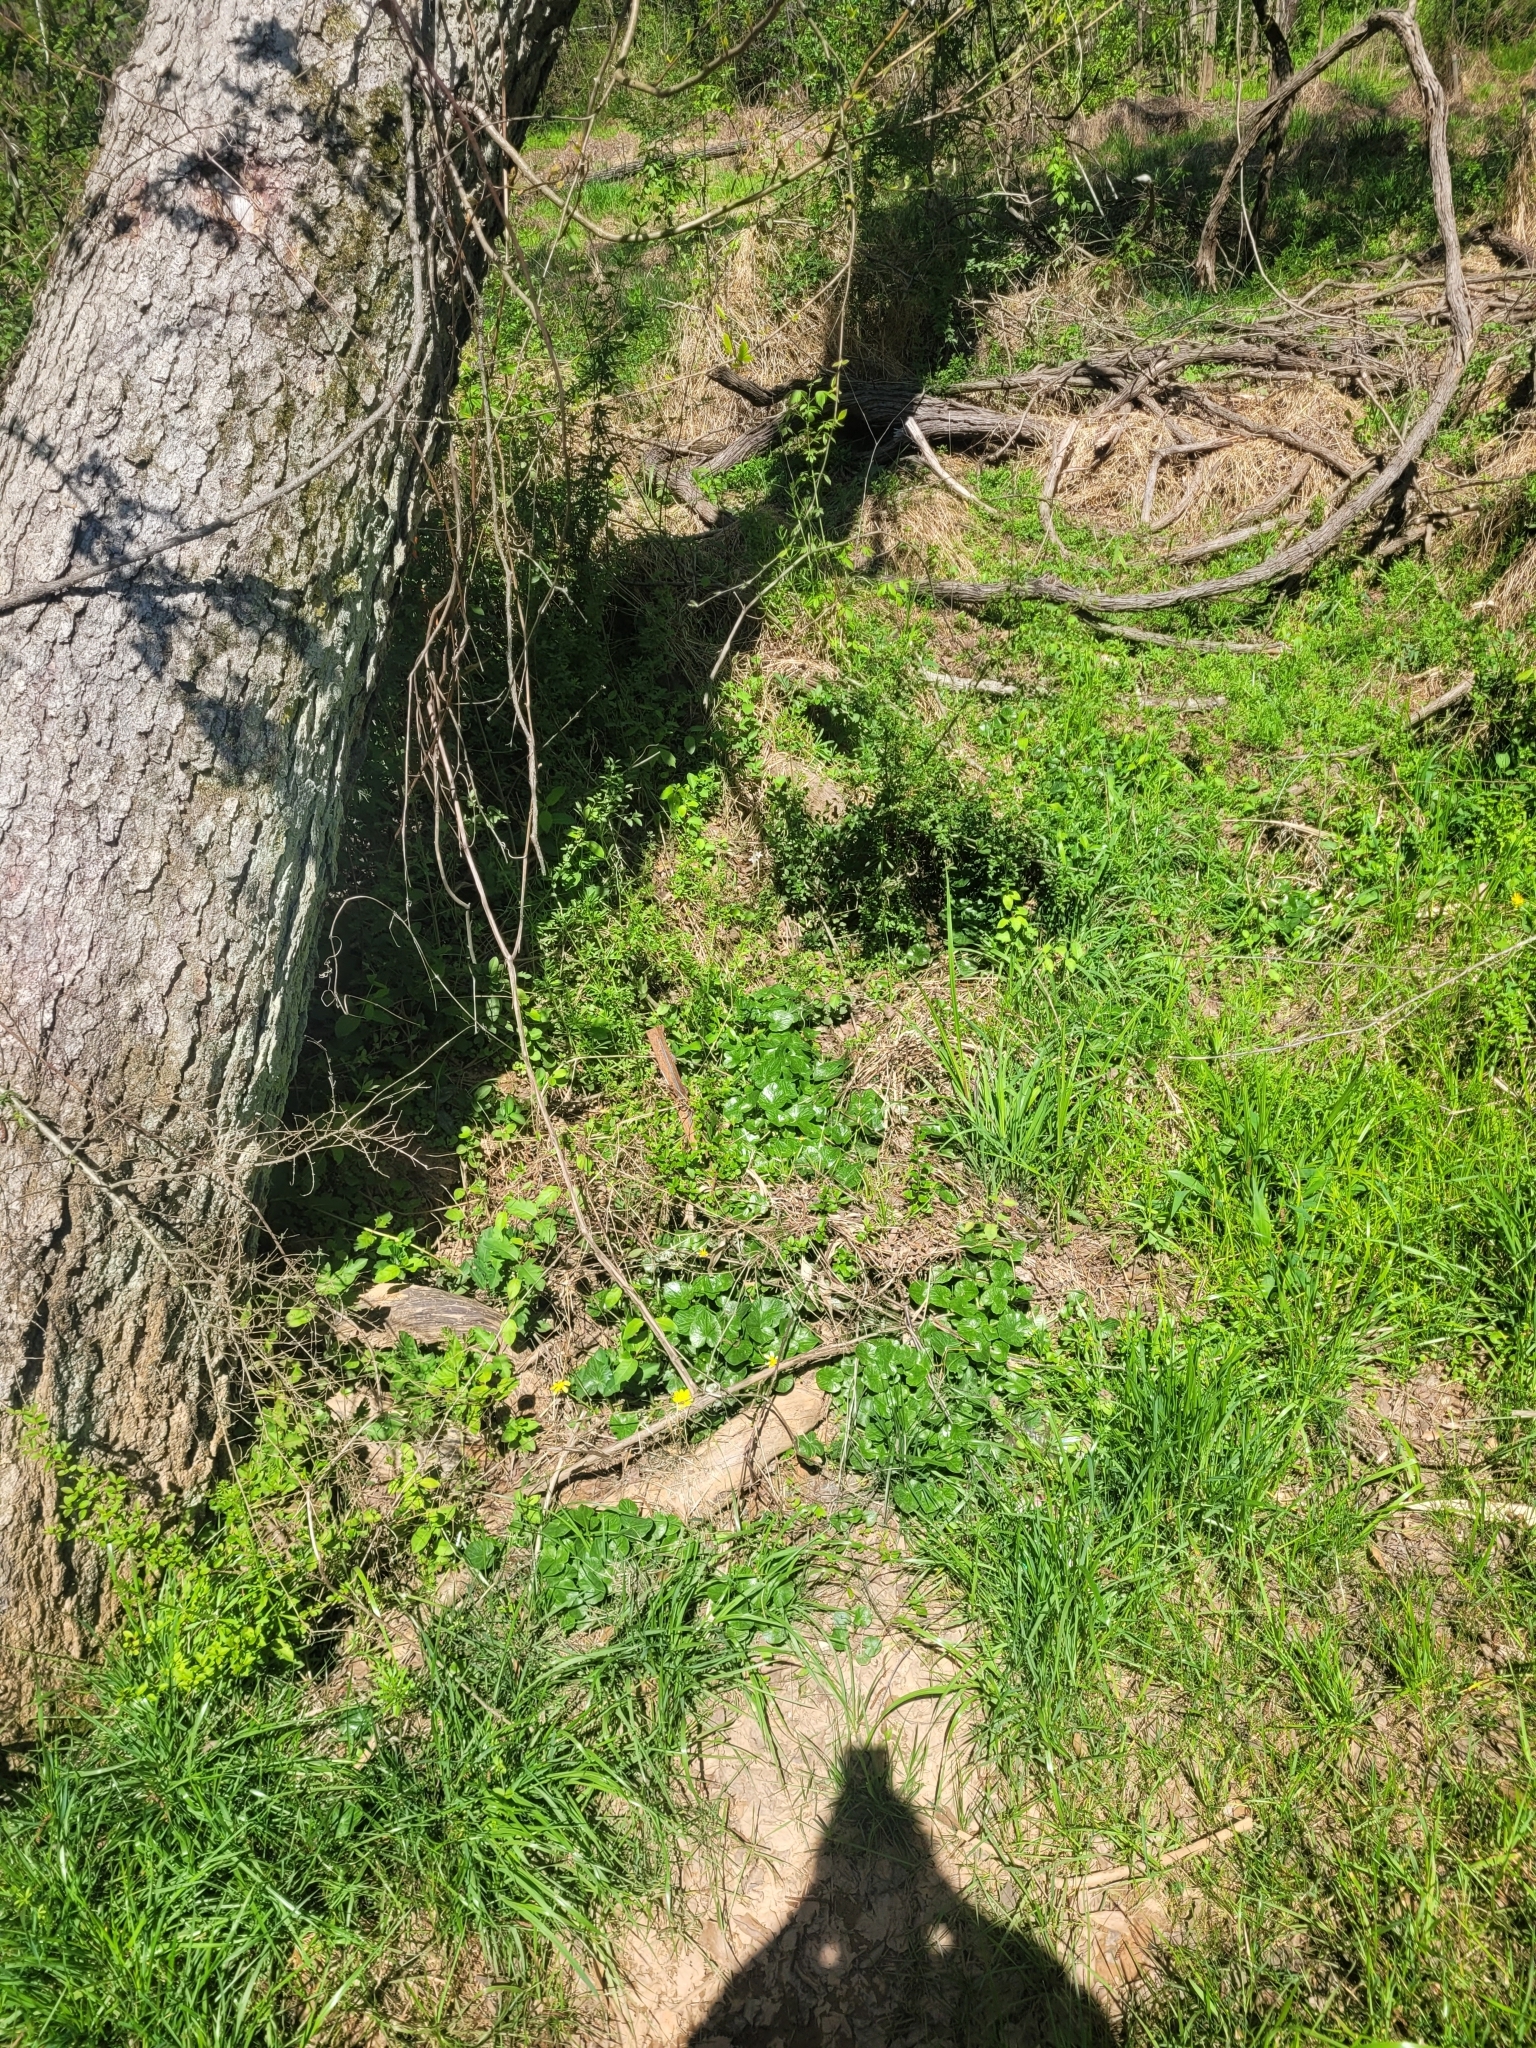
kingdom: Plantae
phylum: Tracheophyta
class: Magnoliopsida
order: Ranunculales
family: Ranunculaceae
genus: Ficaria
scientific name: Ficaria verna
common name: Lesser celandine
